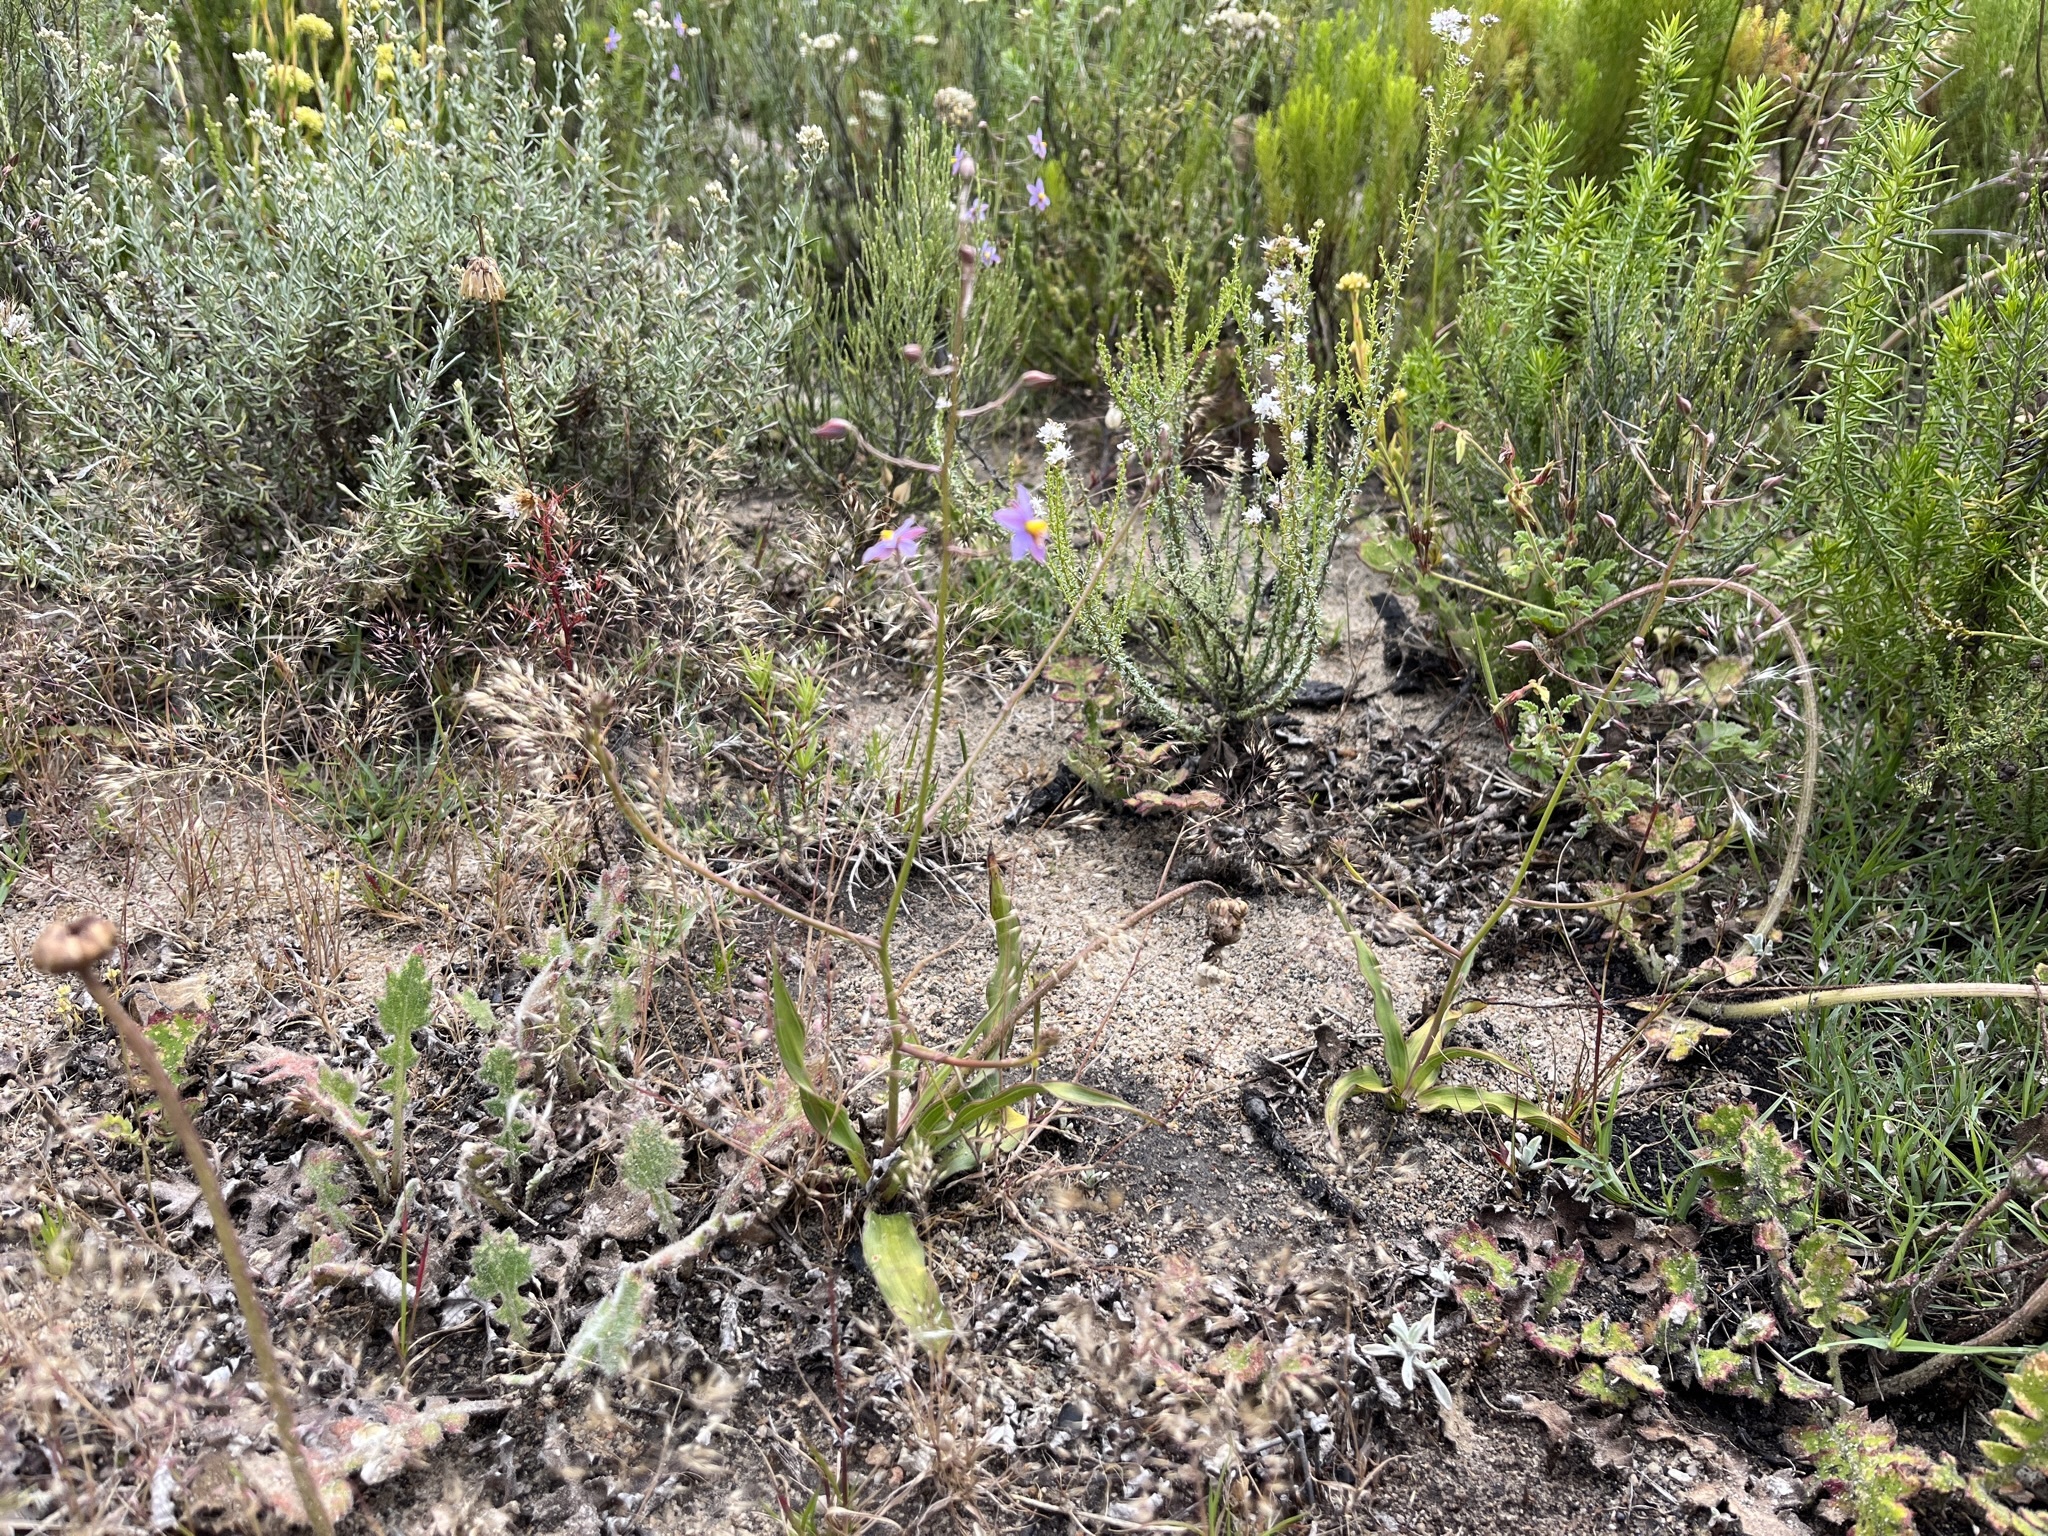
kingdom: Plantae
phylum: Tracheophyta
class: Liliopsida
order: Asparagales
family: Tecophilaeaceae
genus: Cyanella
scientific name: Cyanella hyacinthoides
